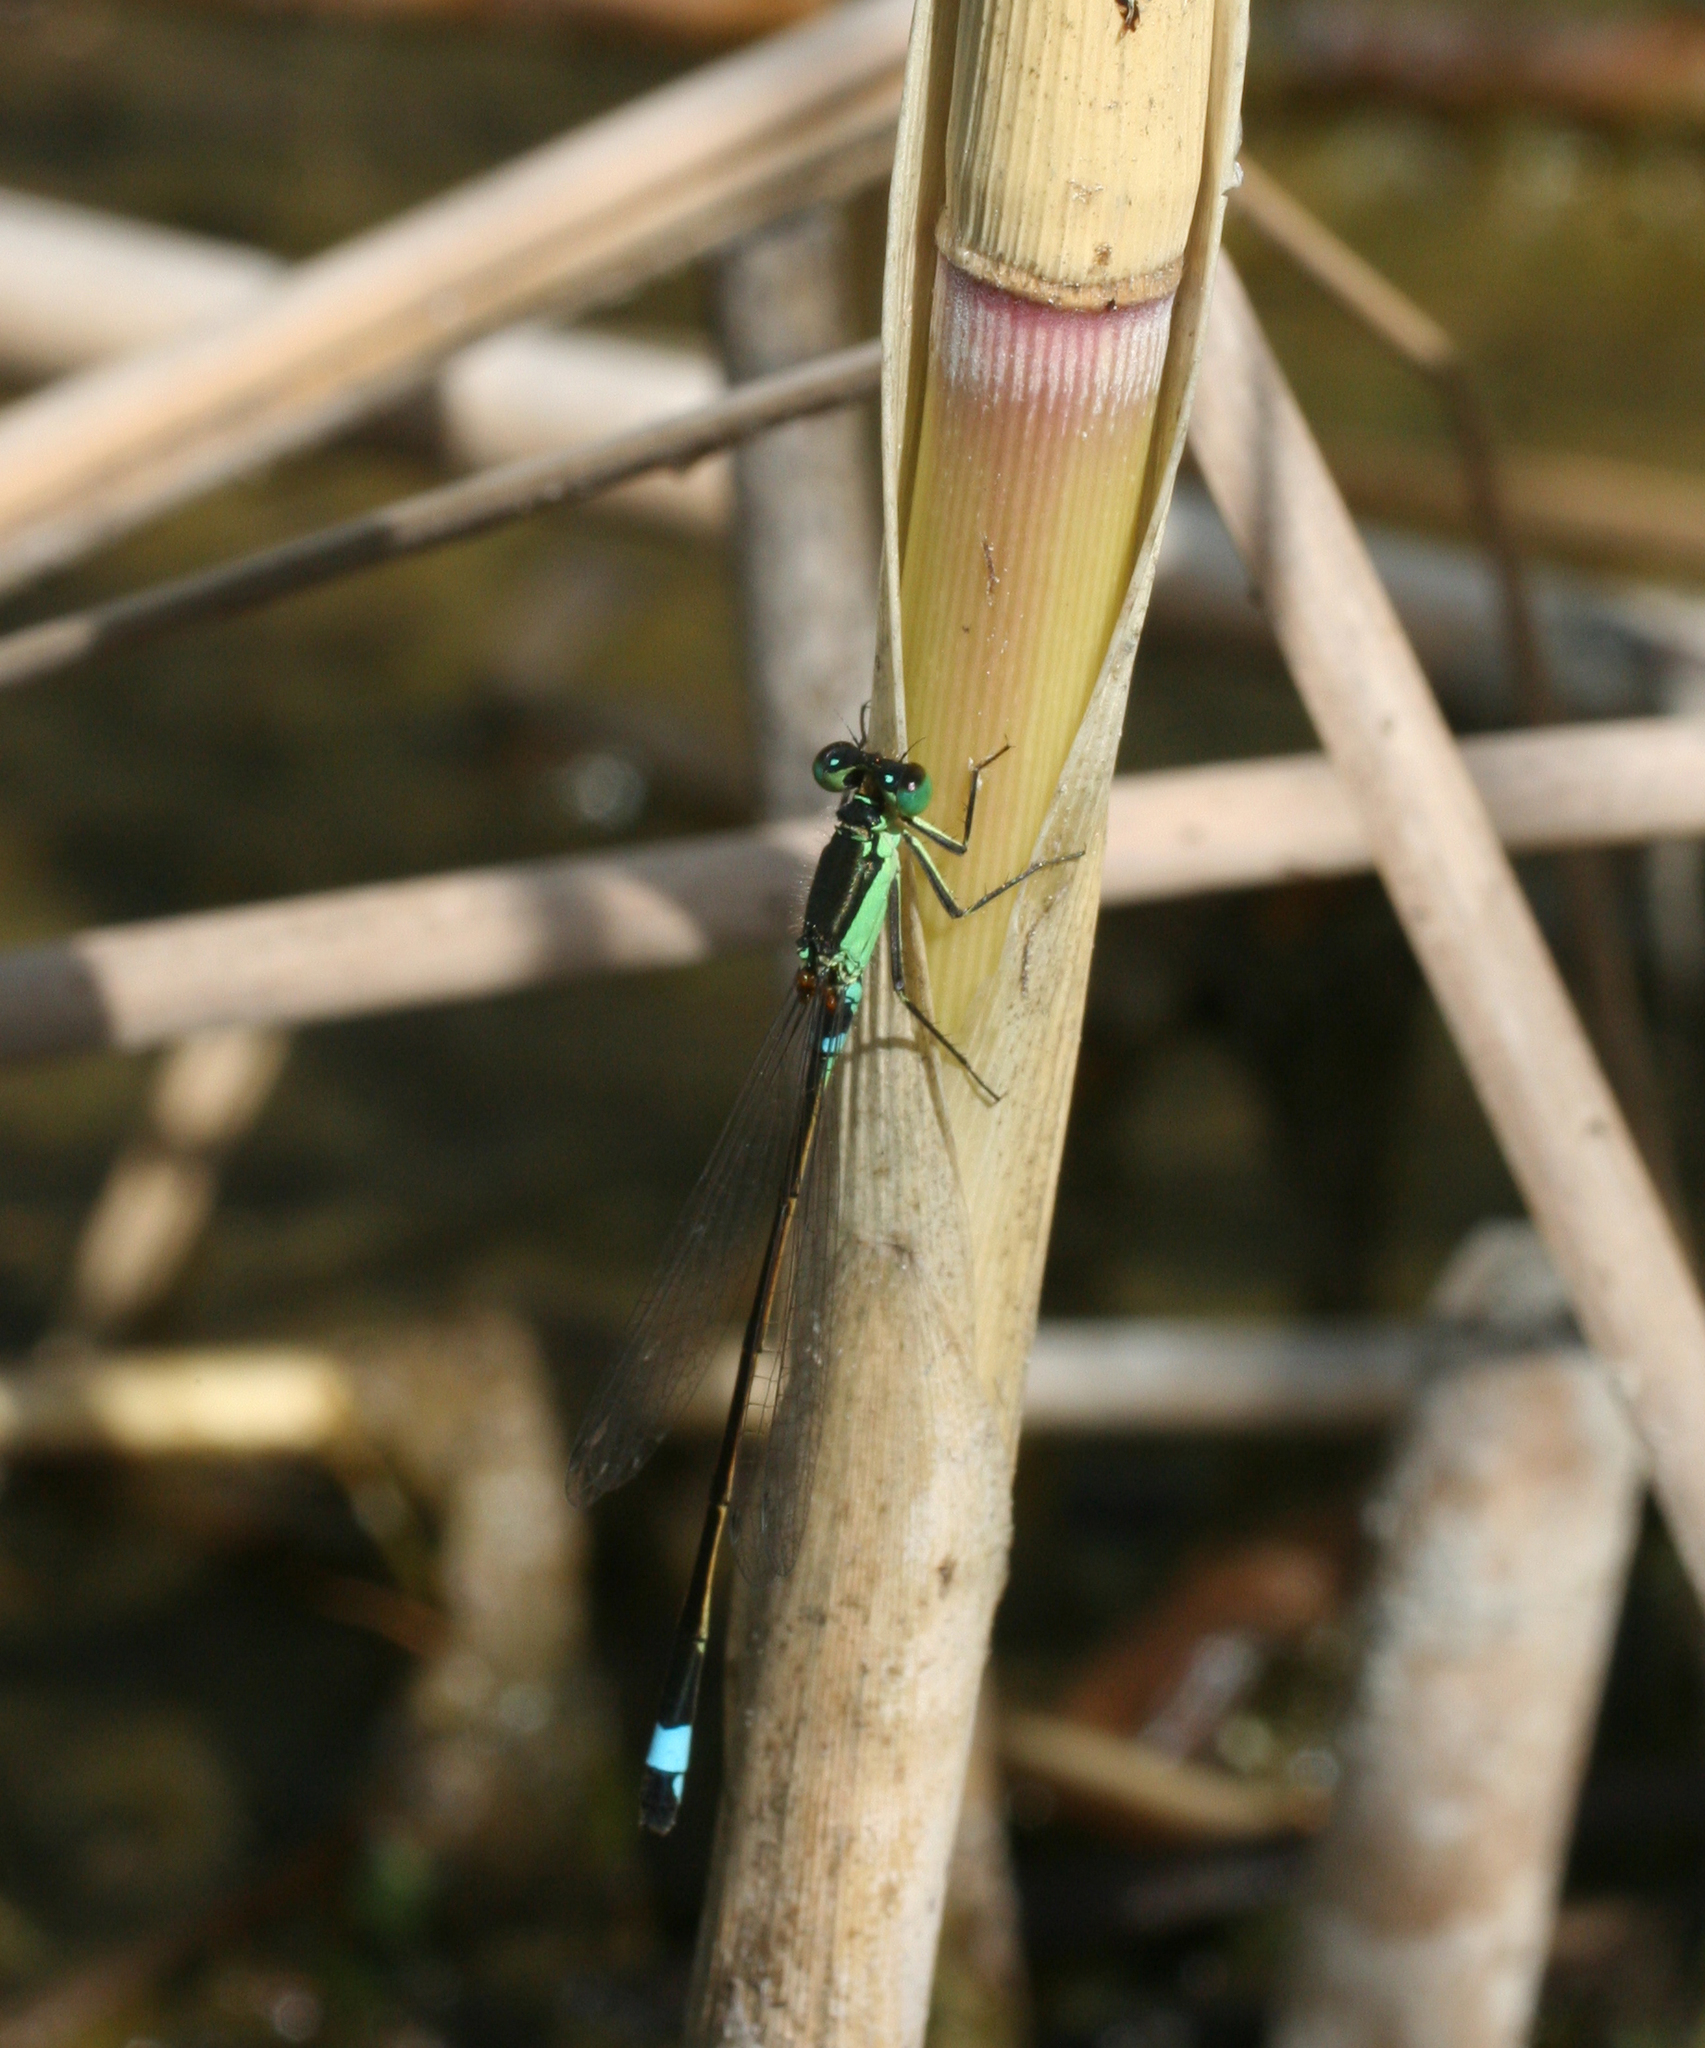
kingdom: Animalia
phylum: Arthropoda
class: Insecta
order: Odonata
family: Coenagrionidae
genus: Ischnura
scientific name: Ischnura aralensis
